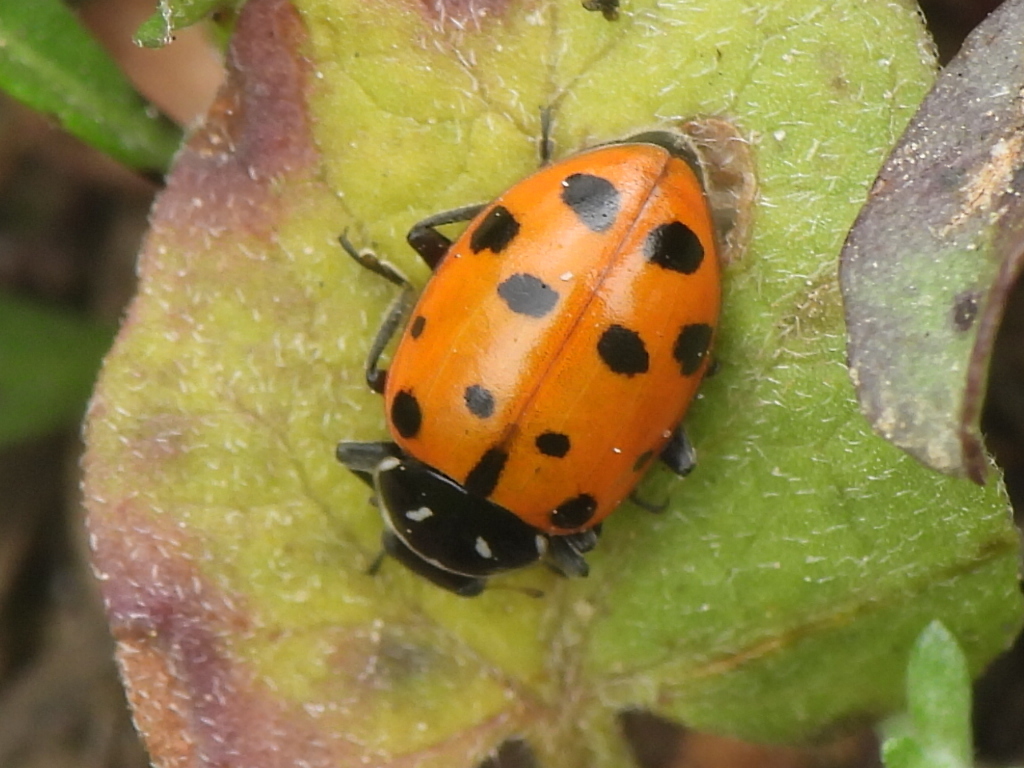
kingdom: Animalia
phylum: Arthropoda
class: Insecta
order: Coleoptera
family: Coccinellidae
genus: Hippodamia
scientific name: Hippodamia convergens
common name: Convergent lady beetle
